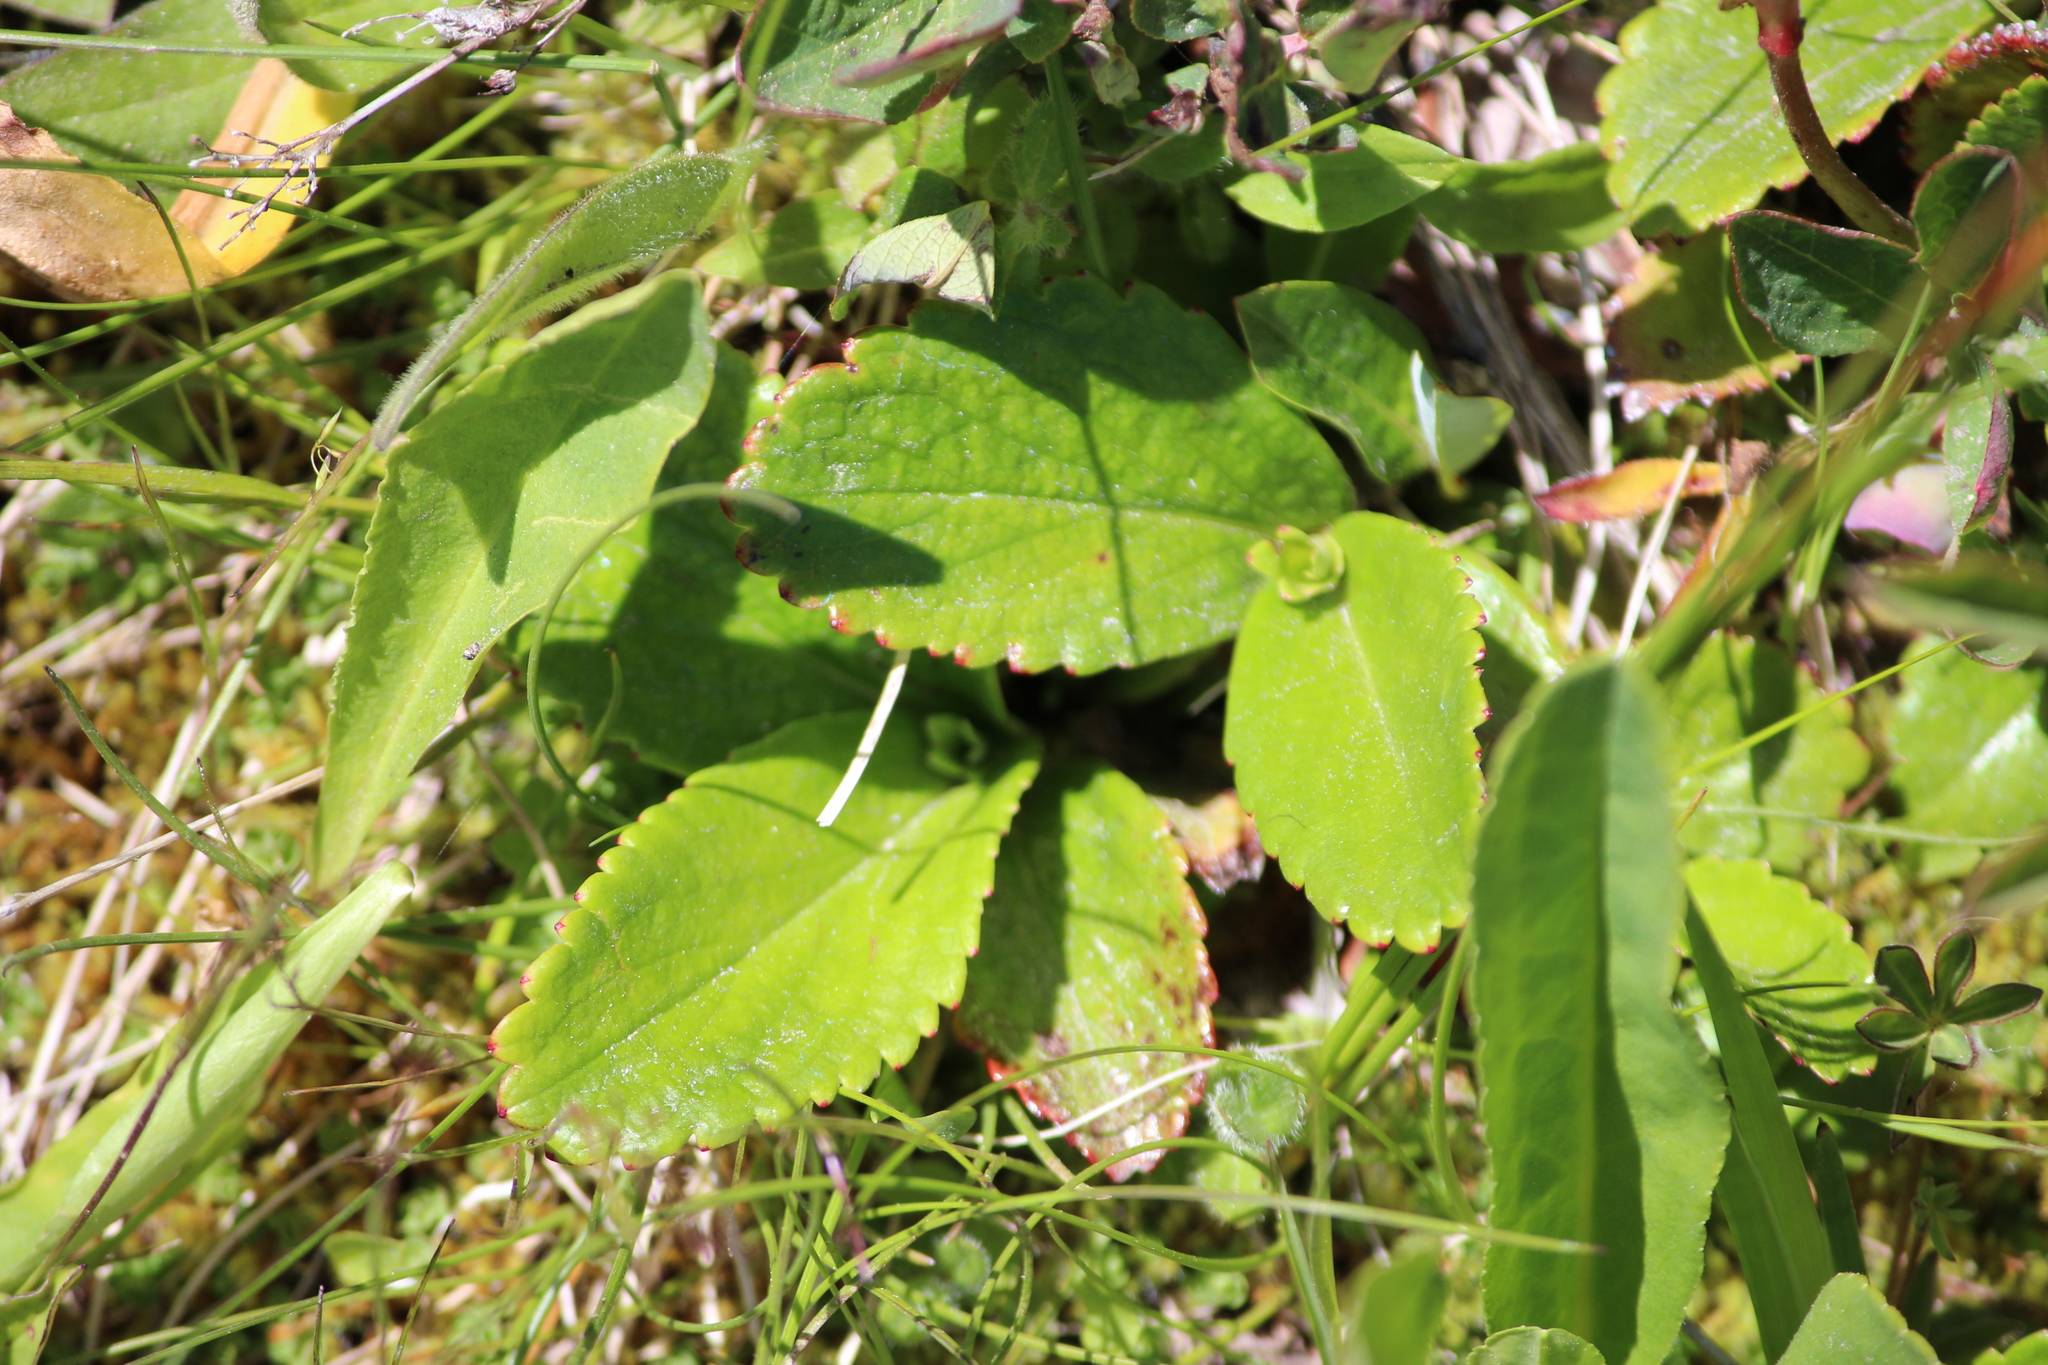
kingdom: Plantae
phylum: Tracheophyta
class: Magnoliopsida
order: Saxifragales
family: Saxifragaceae
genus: Leptarrhena
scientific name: Leptarrhena pyrolifolia
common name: Leatherleaf-saxifrage
